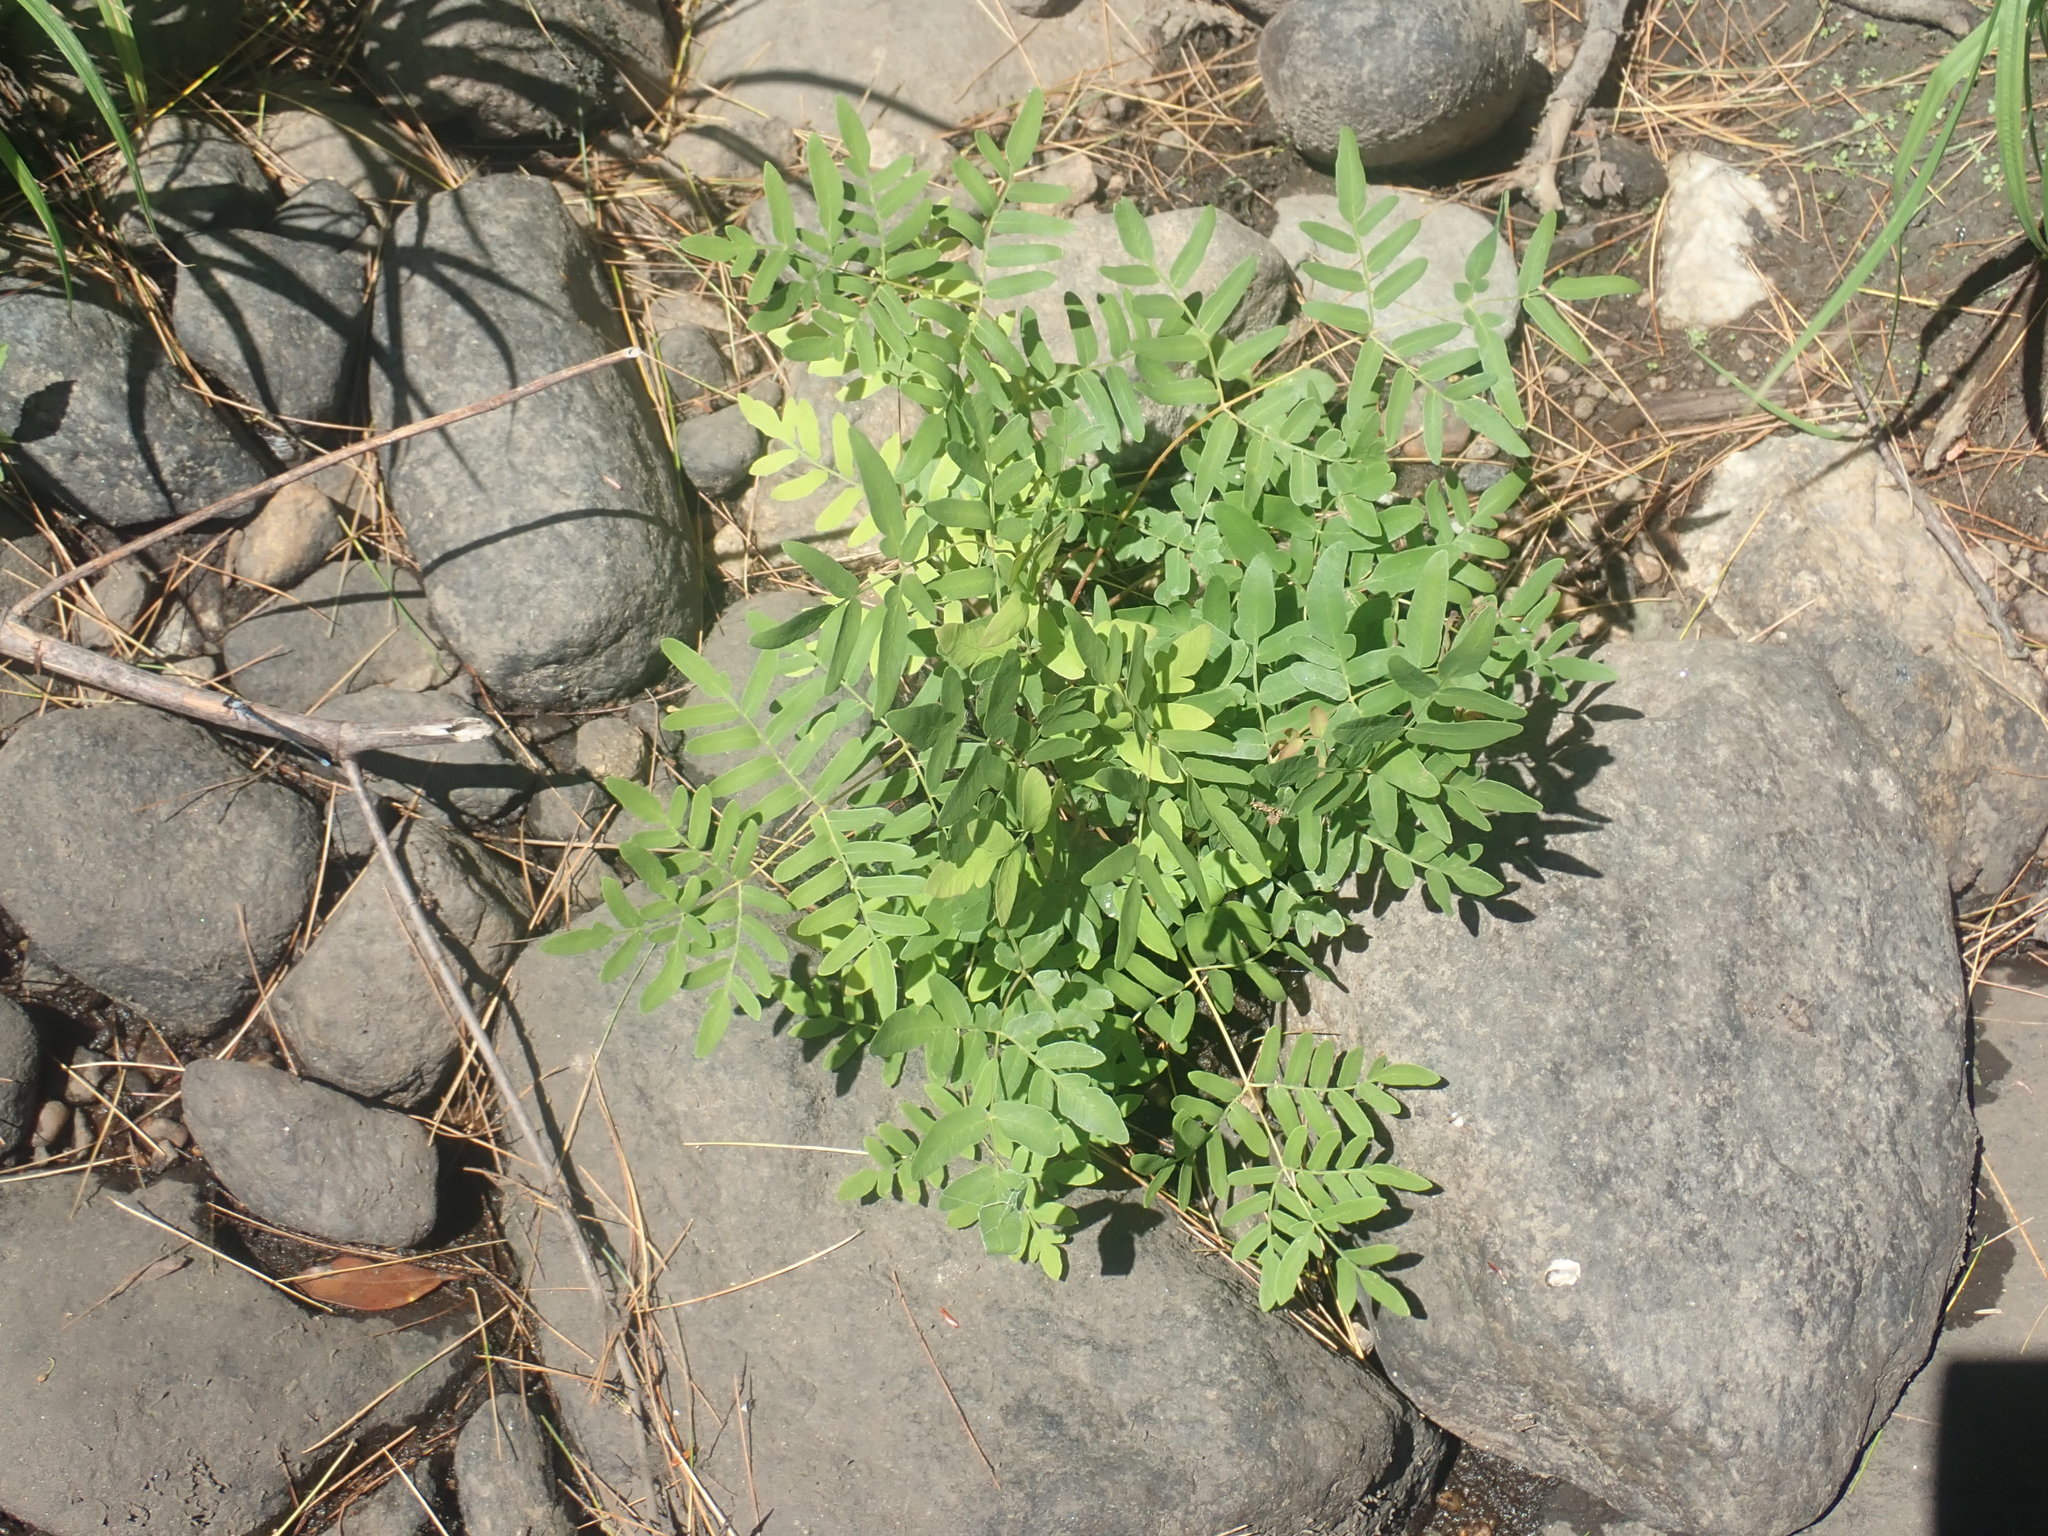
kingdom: Plantae
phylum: Tracheophyta
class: Polypodiopsida
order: Osmundales
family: Osmundaceae
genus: Osmunda
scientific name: Osmunda spectabilis
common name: American royal fern
